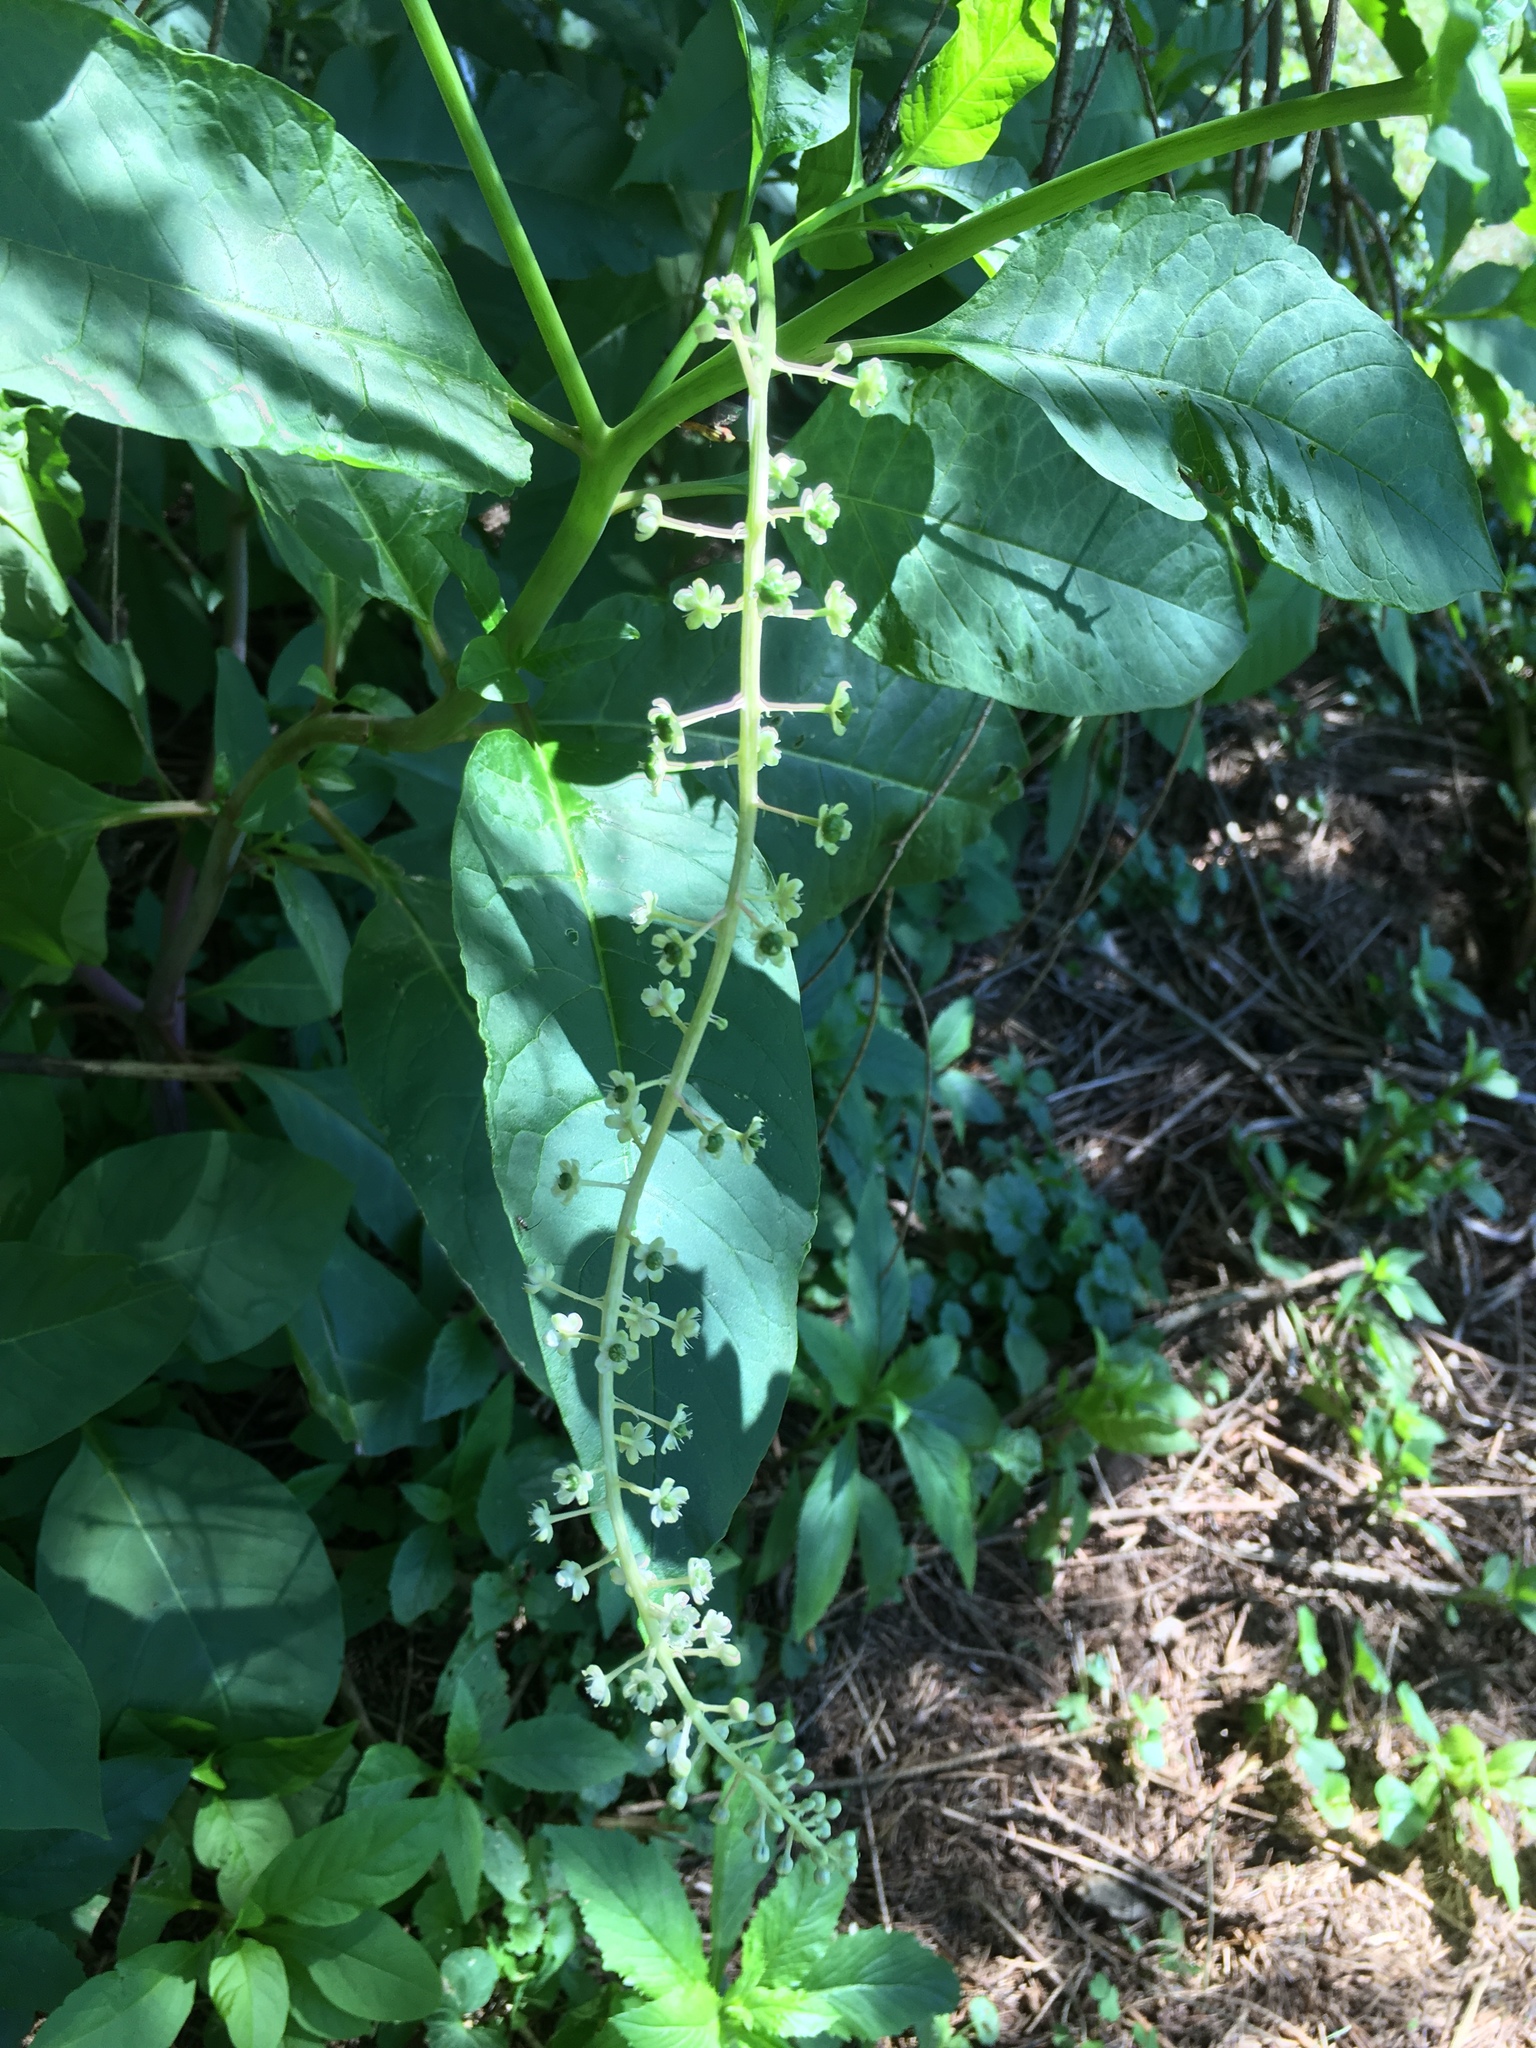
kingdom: Plantae
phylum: Tracheophyta
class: Magnoliopsida
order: Caryophyllales
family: Phytolaccaceae
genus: Phytolacca
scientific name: Phytolacca americana
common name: American pokeweed
